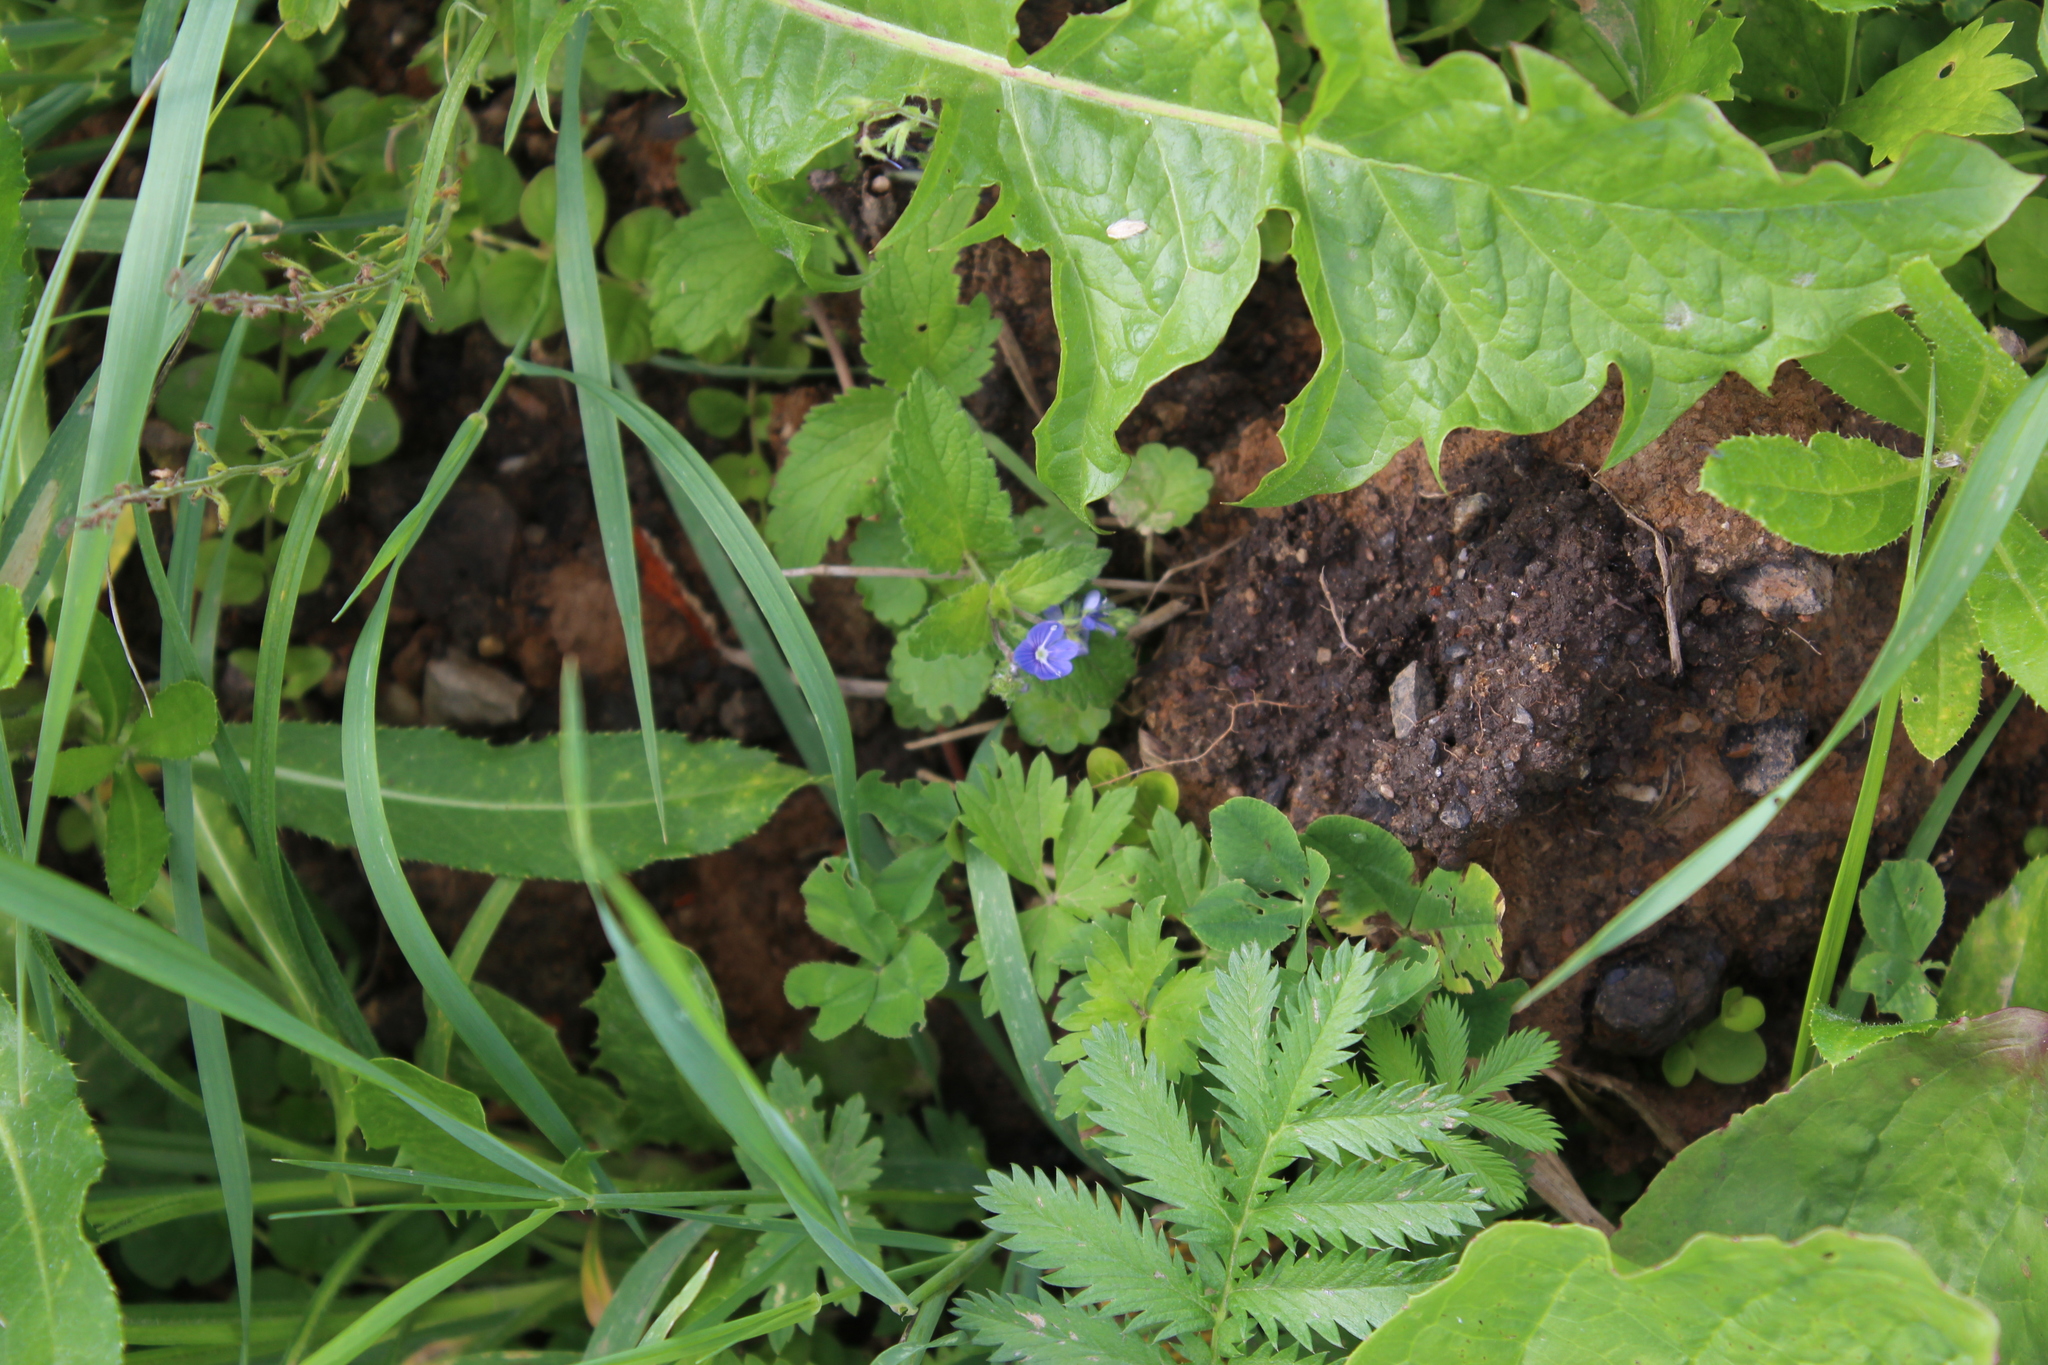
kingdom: Plantae
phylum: Tracheophyta
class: Magnoliopsida
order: Lamiales
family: Plantaginaceae
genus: Veronica
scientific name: Veronica chamaedrys
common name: Germander speedwell
